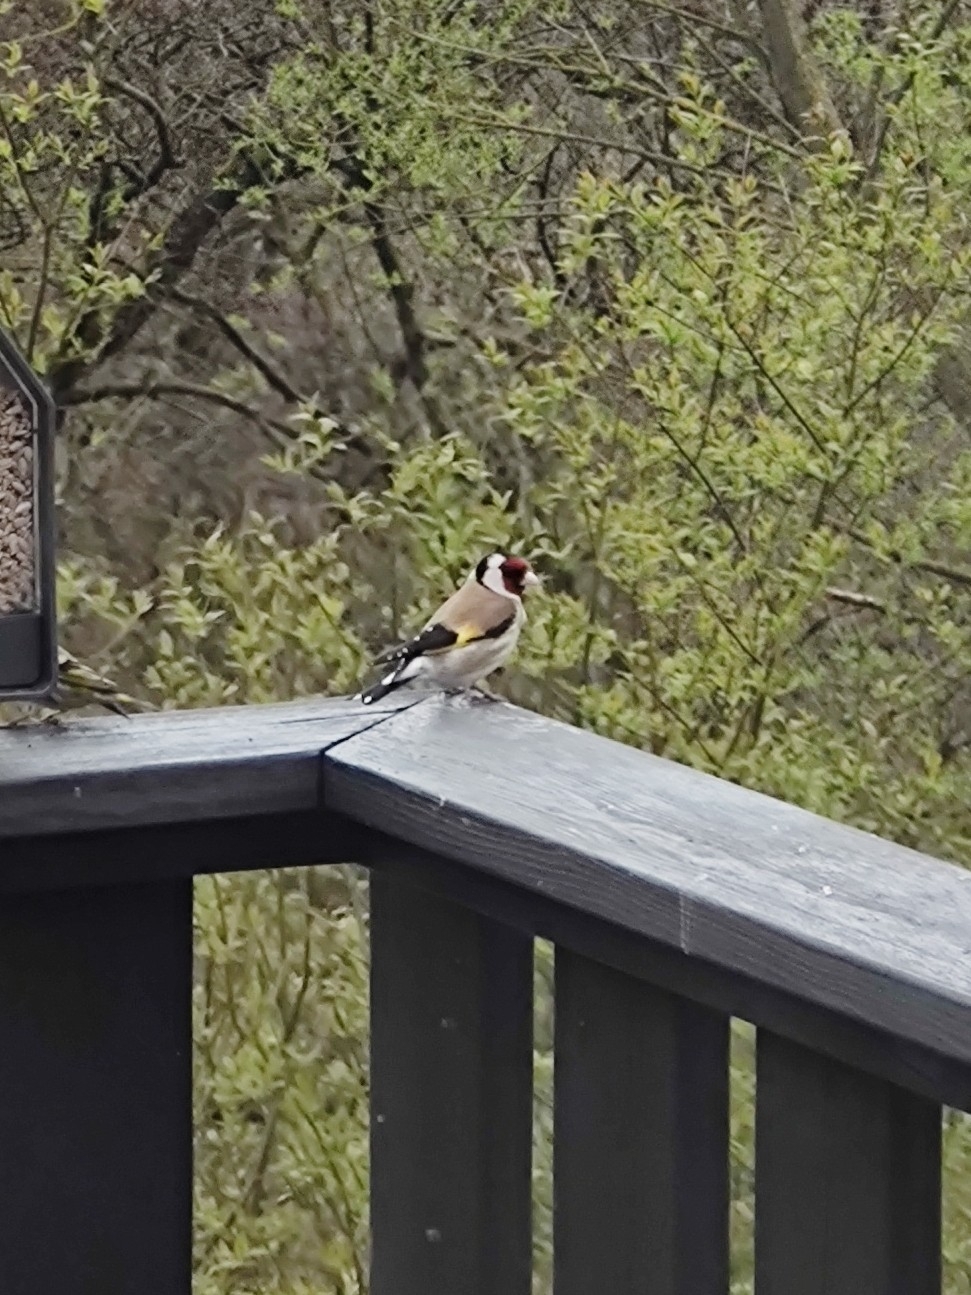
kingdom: Animalia
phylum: Chordata
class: Aves
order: Passeriformes
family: Fringillidae
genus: Carduelis
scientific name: Carduelis carduelis
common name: European goldfinch
